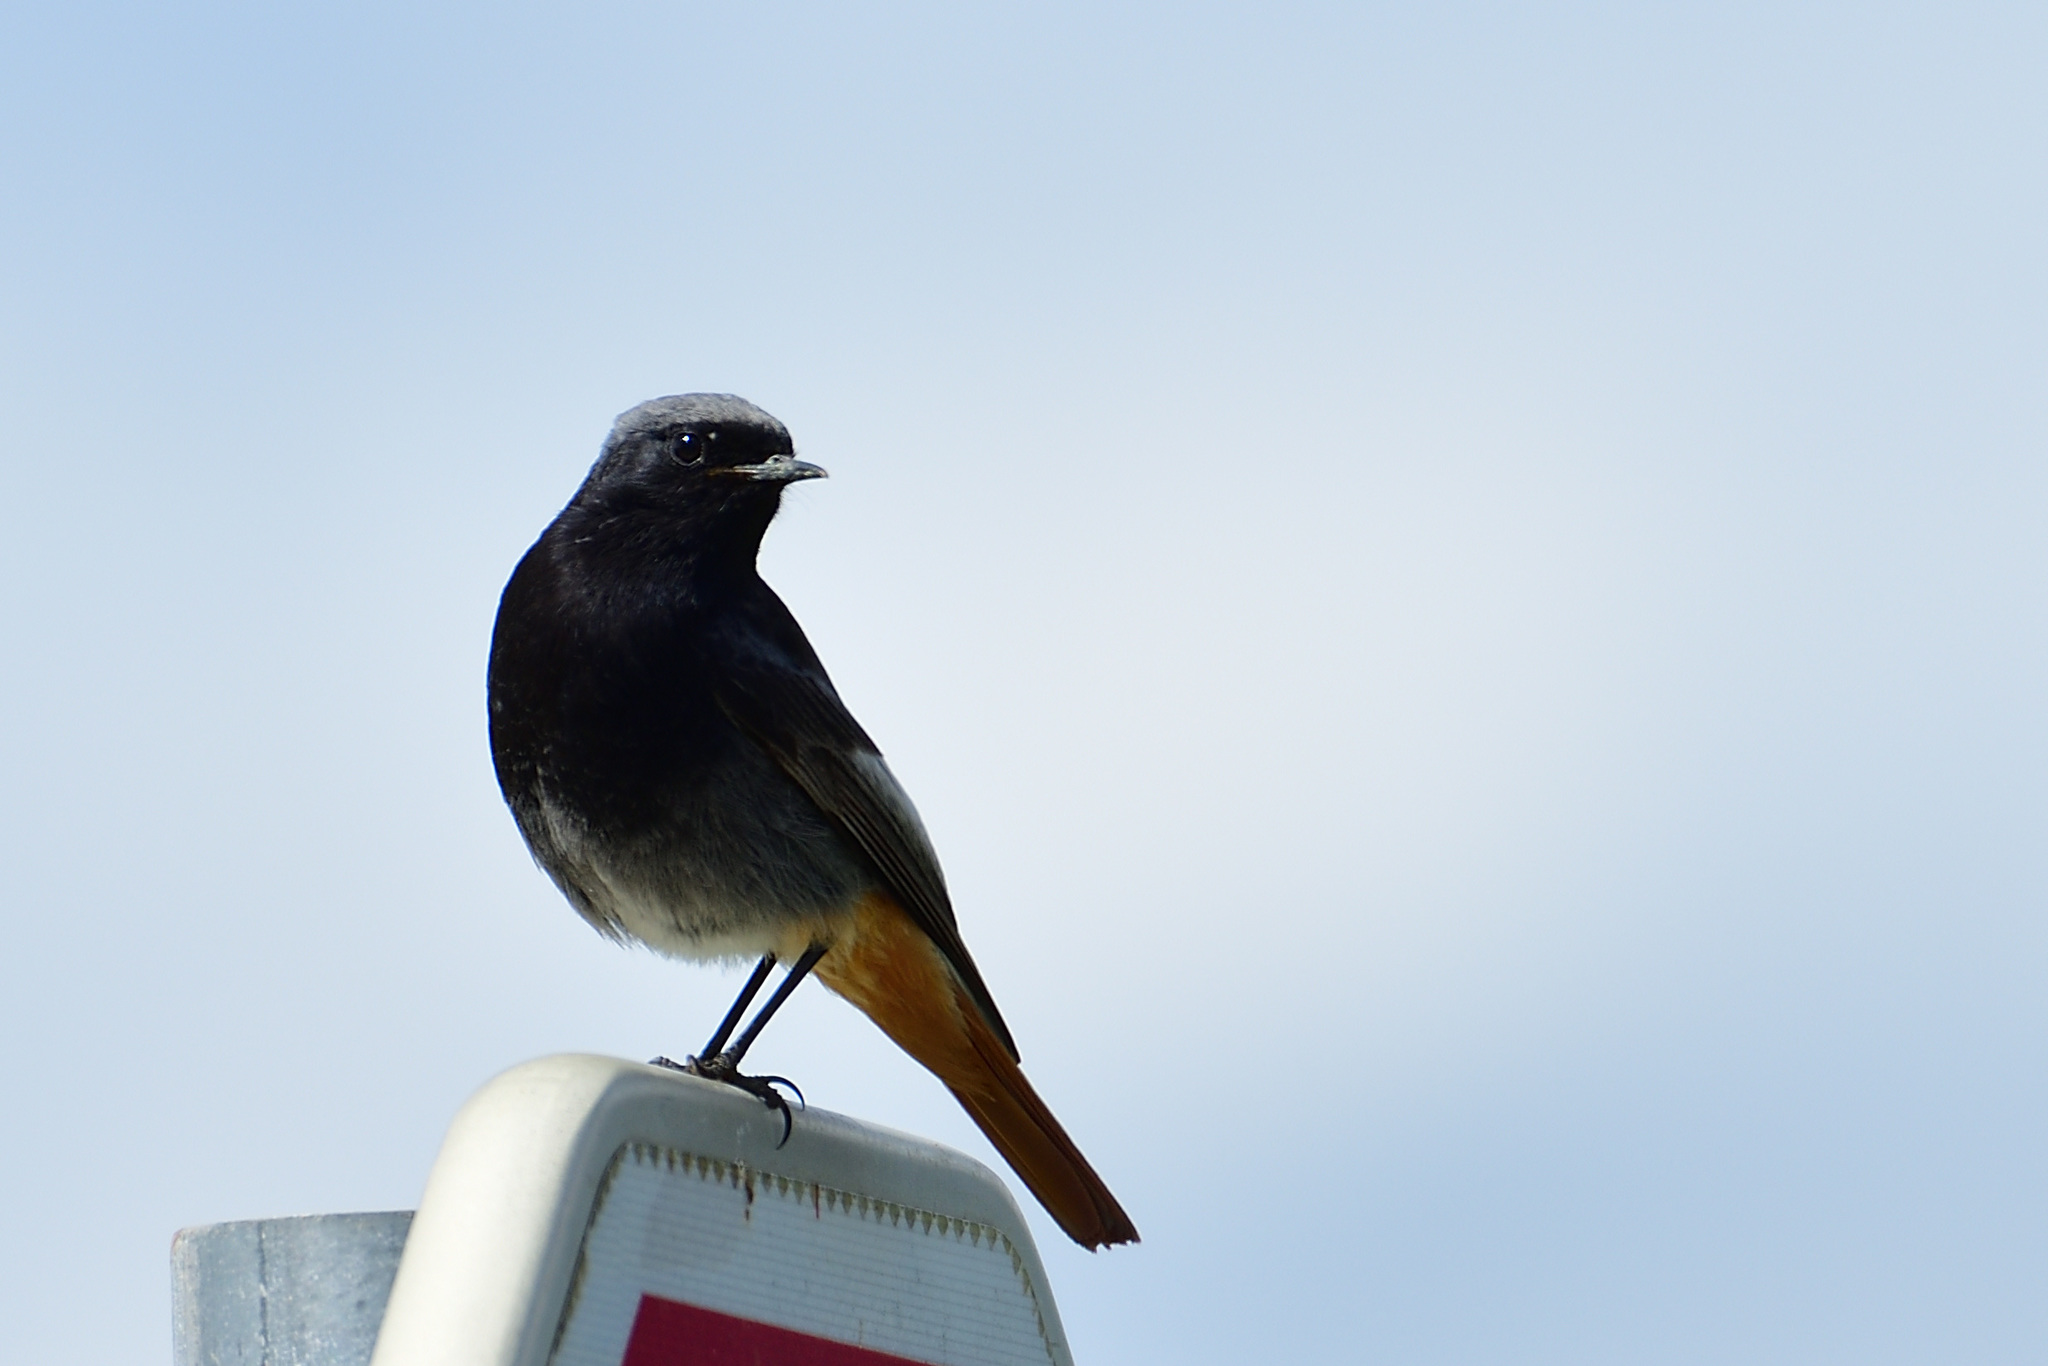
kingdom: Animalia
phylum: Chordata
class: Aves
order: Passeriformes
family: Muscicapidae
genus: Phoenicurus
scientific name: Phoenicurus ochruros
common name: Black redstart
